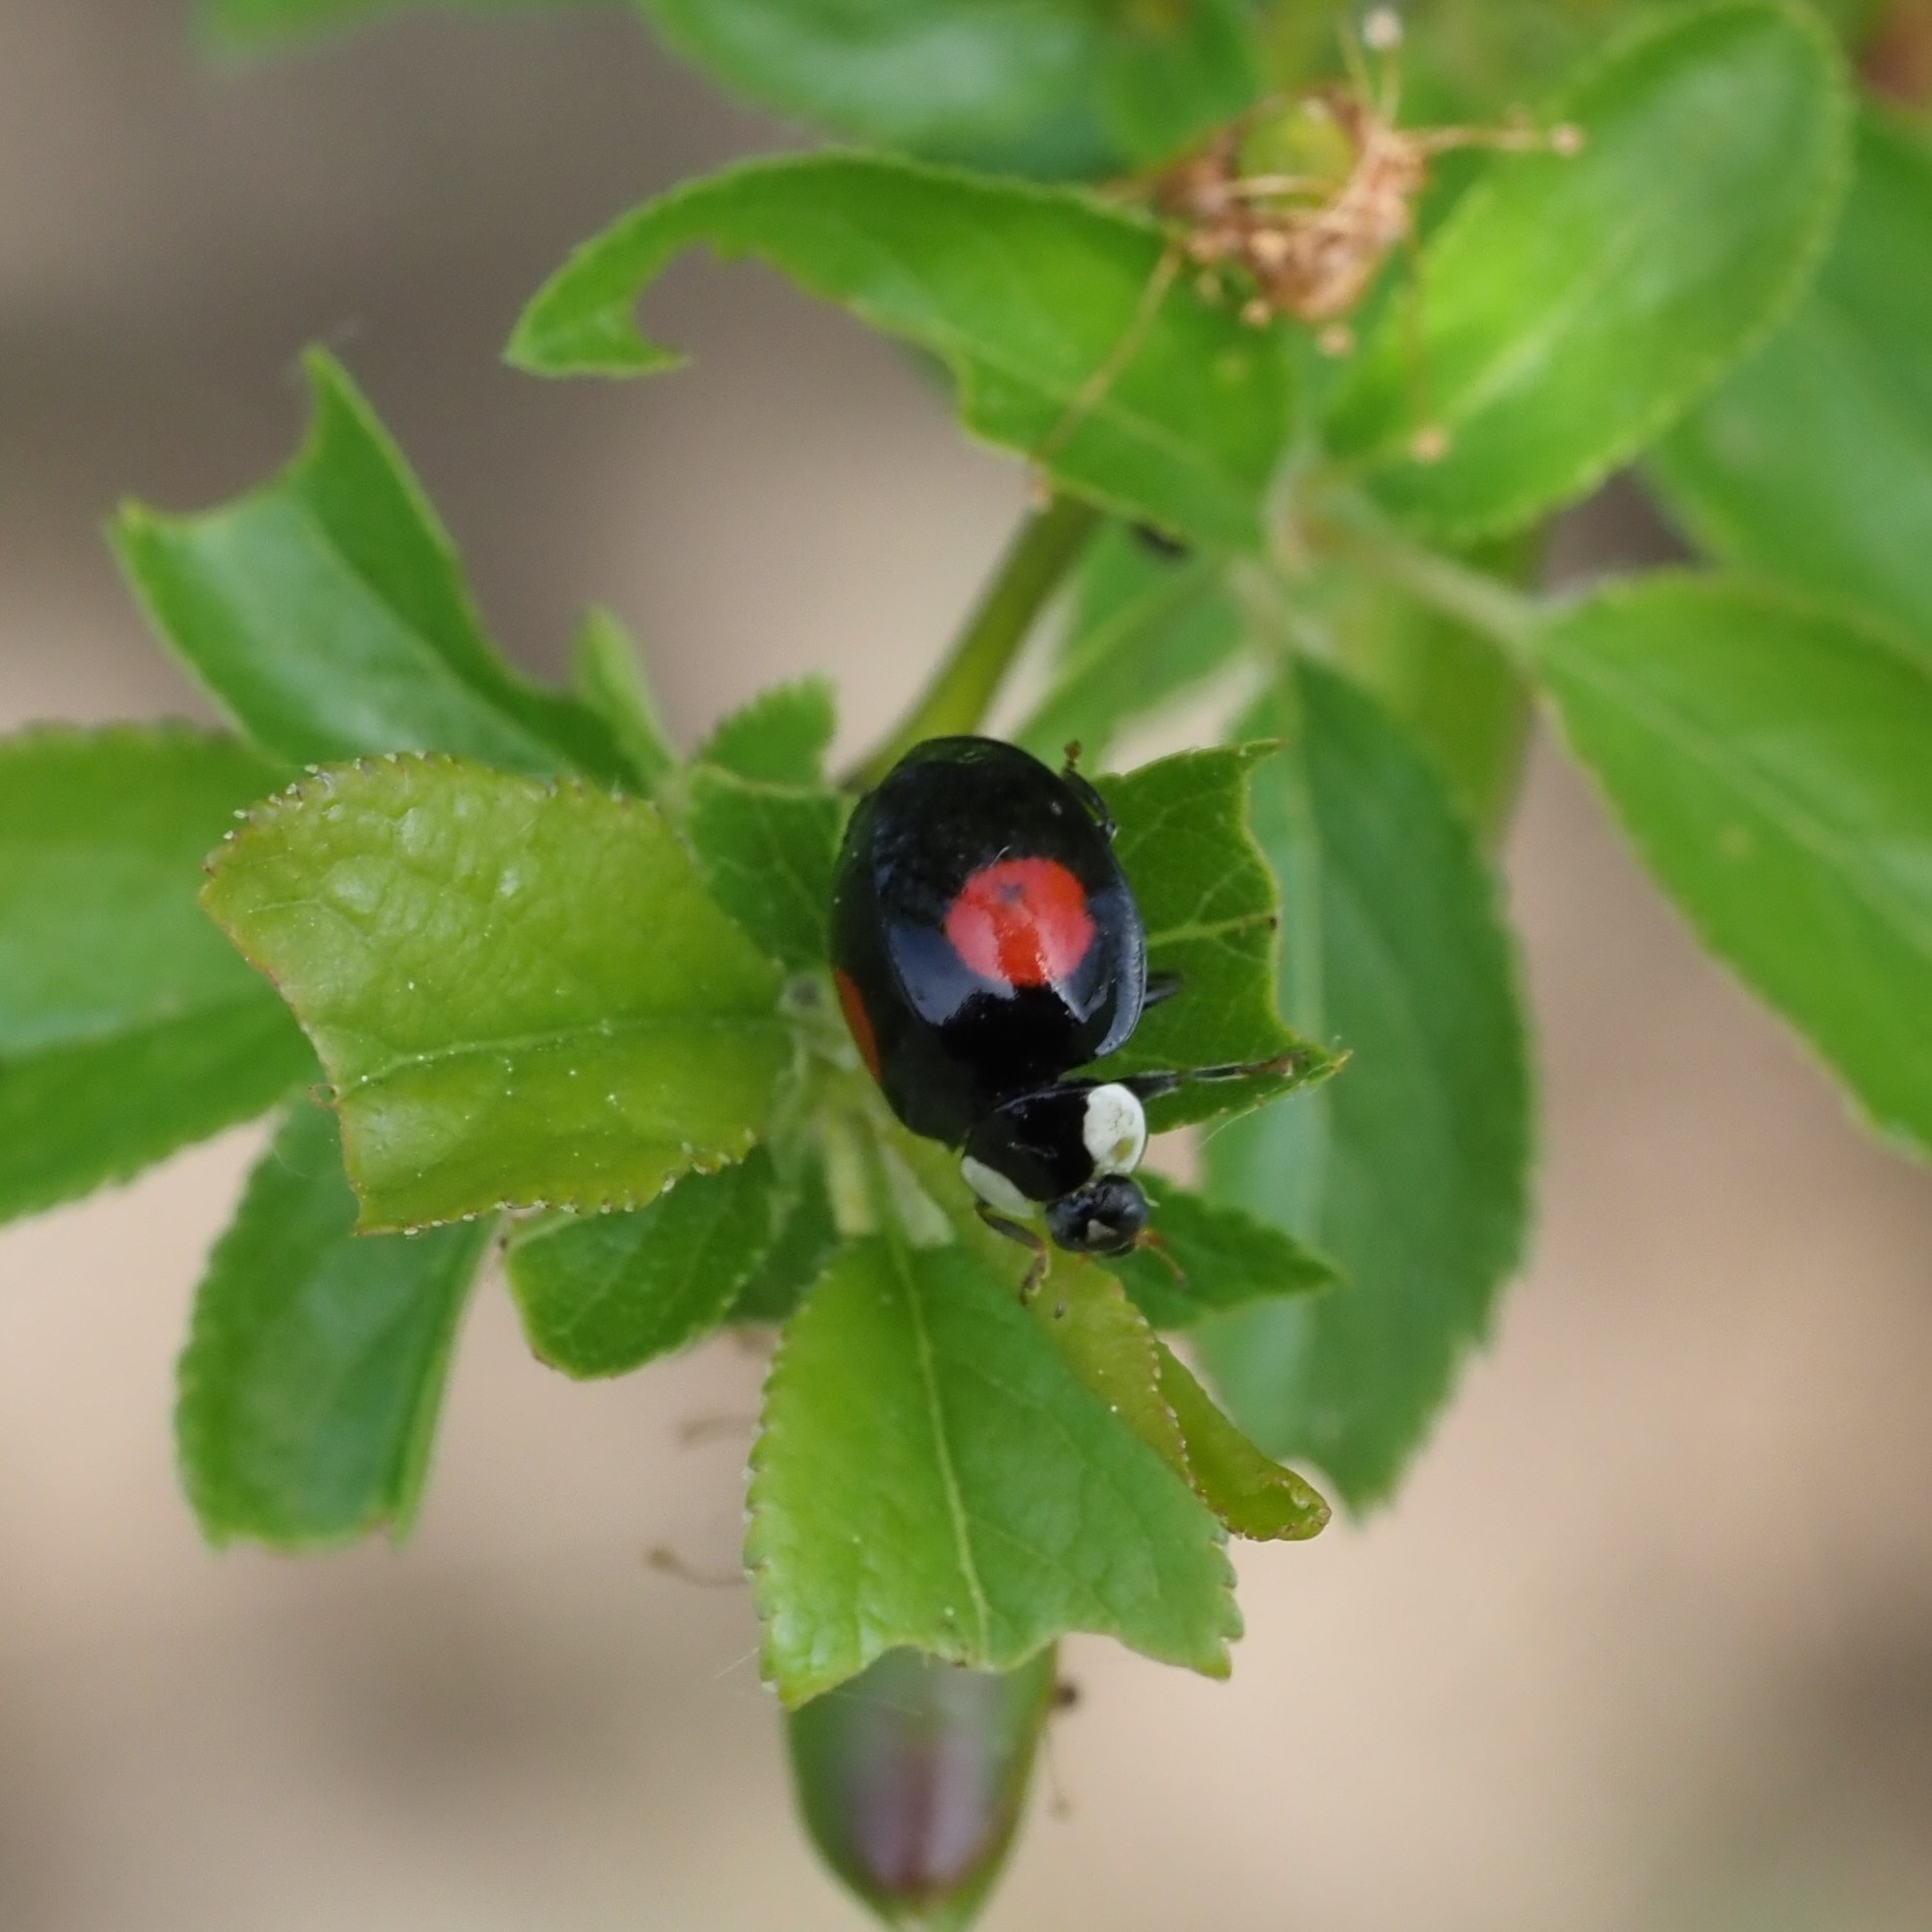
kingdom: Animalia
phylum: Arthropoda
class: Insecta
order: Coleoptera
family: Coccinellidae
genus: Harmonia
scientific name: Harmonia axyridis
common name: Harlequin ladybird
